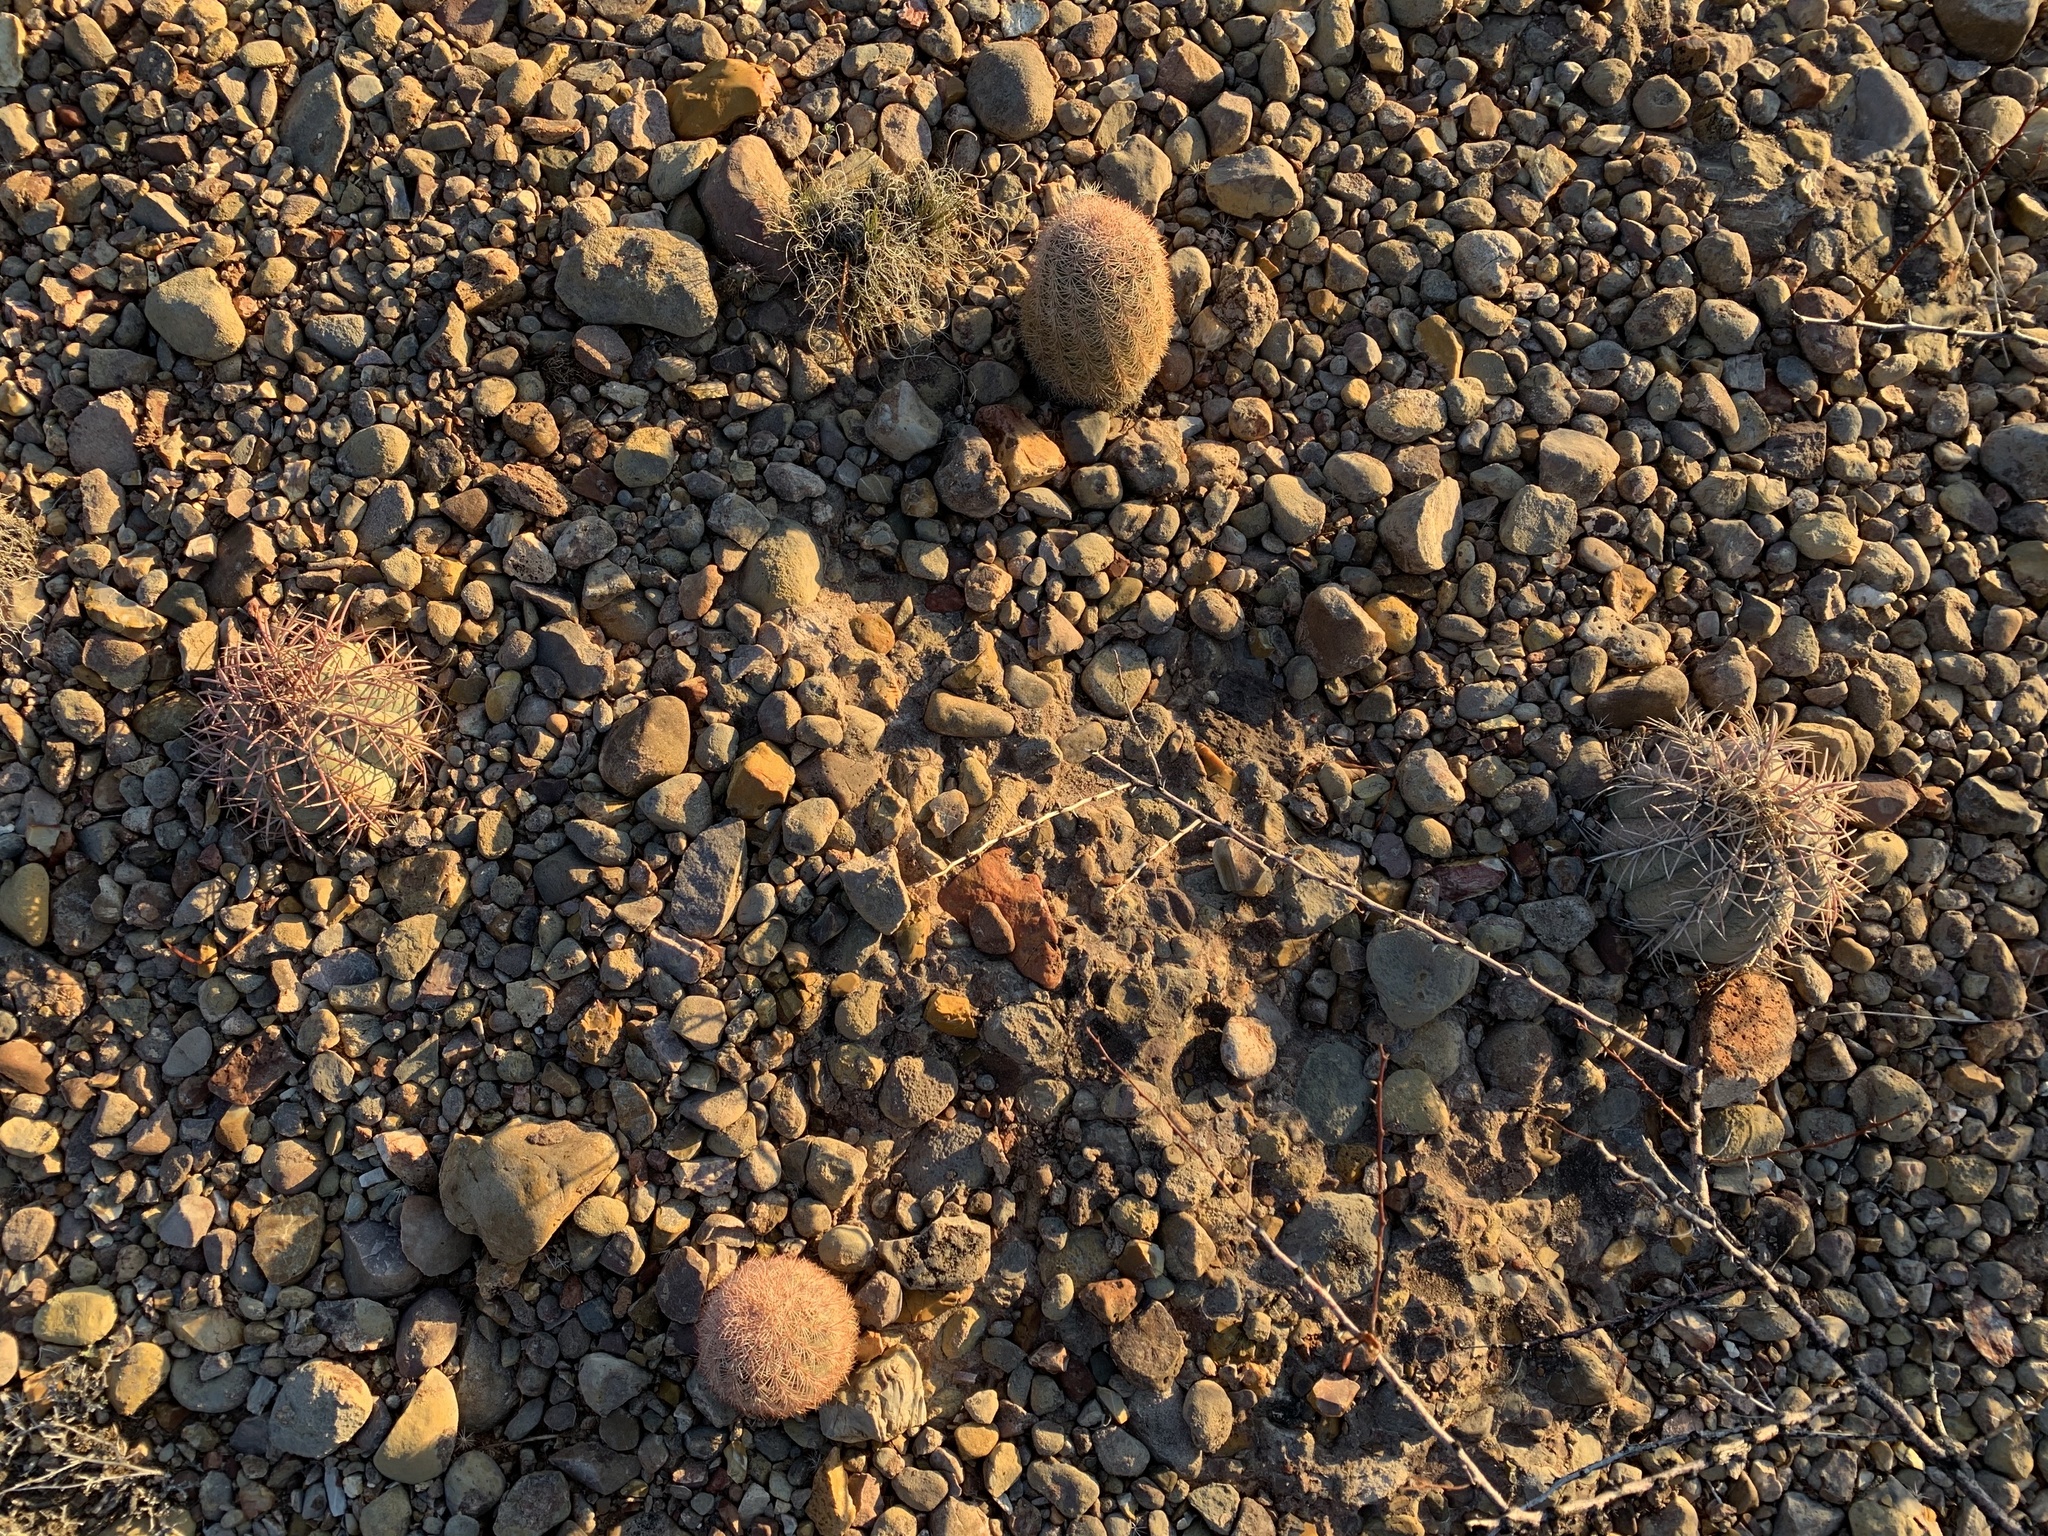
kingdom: Plantae
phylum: Tracheophyta
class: Magnoliopsida
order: Caryophyllales
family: Cactaceae
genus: Echinocactus
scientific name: Echinocactus horizonthalonius
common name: Devilshead
